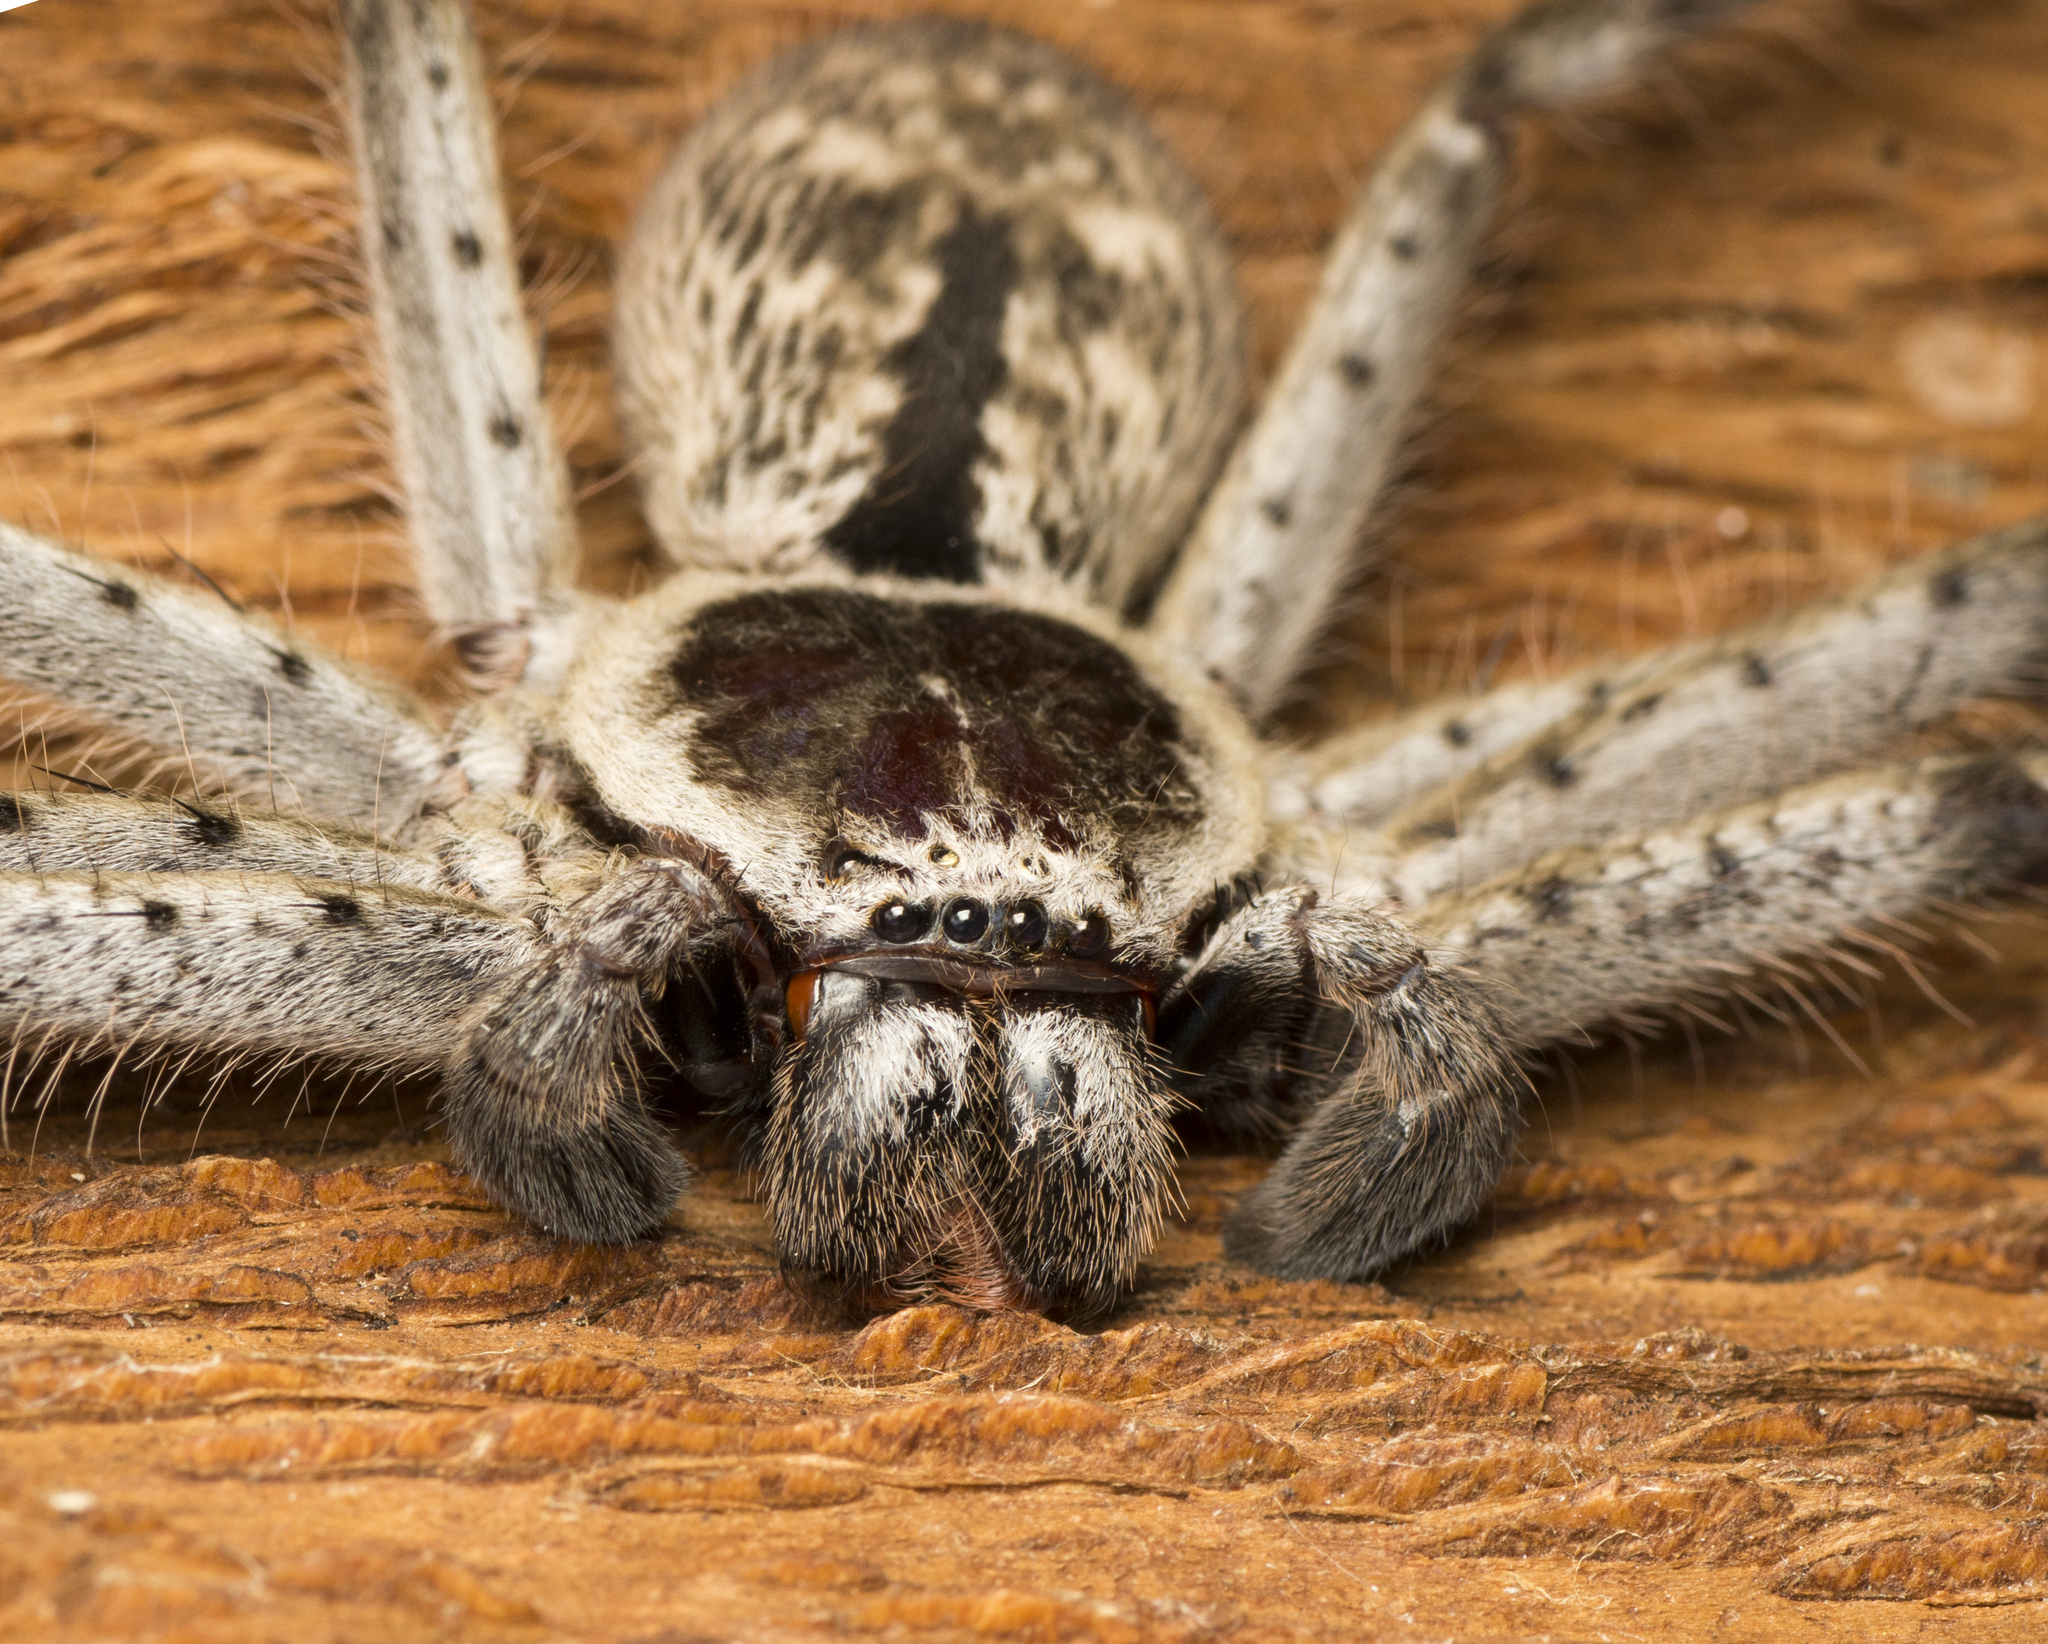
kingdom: Animalia
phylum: Arthropoda
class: Arachnida
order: Araneae
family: Sparassidae
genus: Holconia
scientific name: Holconia immanis
